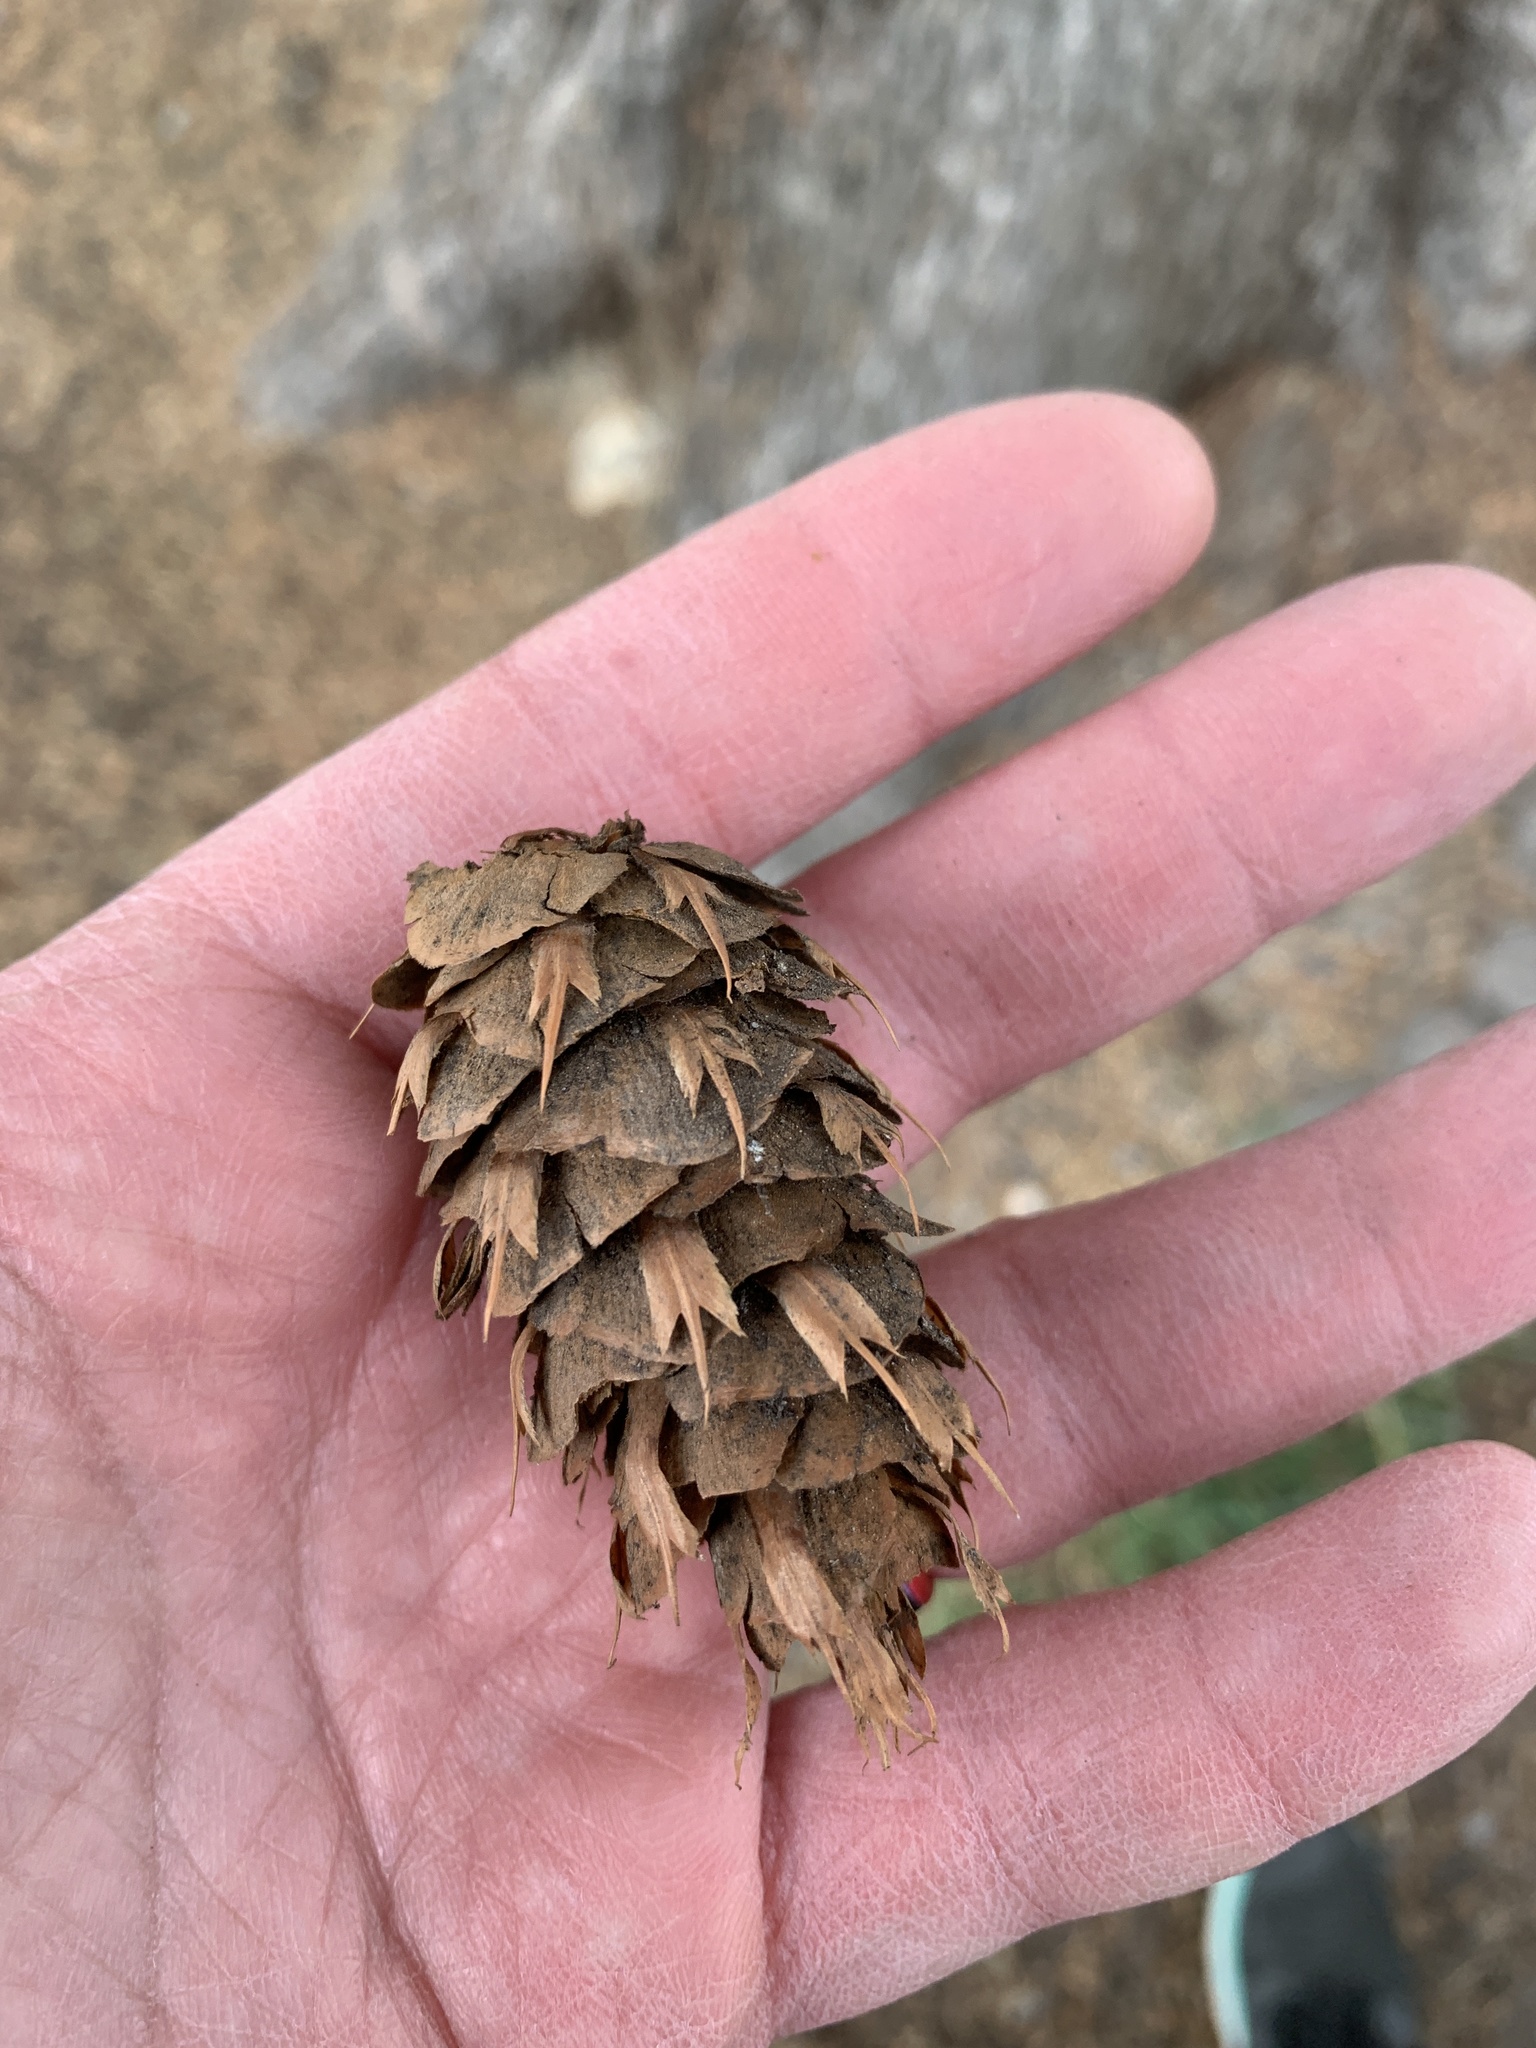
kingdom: Plantae
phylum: Tracheophyta
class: Pinopsida
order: Pinales
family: Pinaceae
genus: Pseudotsuga
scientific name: Pseudotsuga menziesii
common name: Douglas fir
